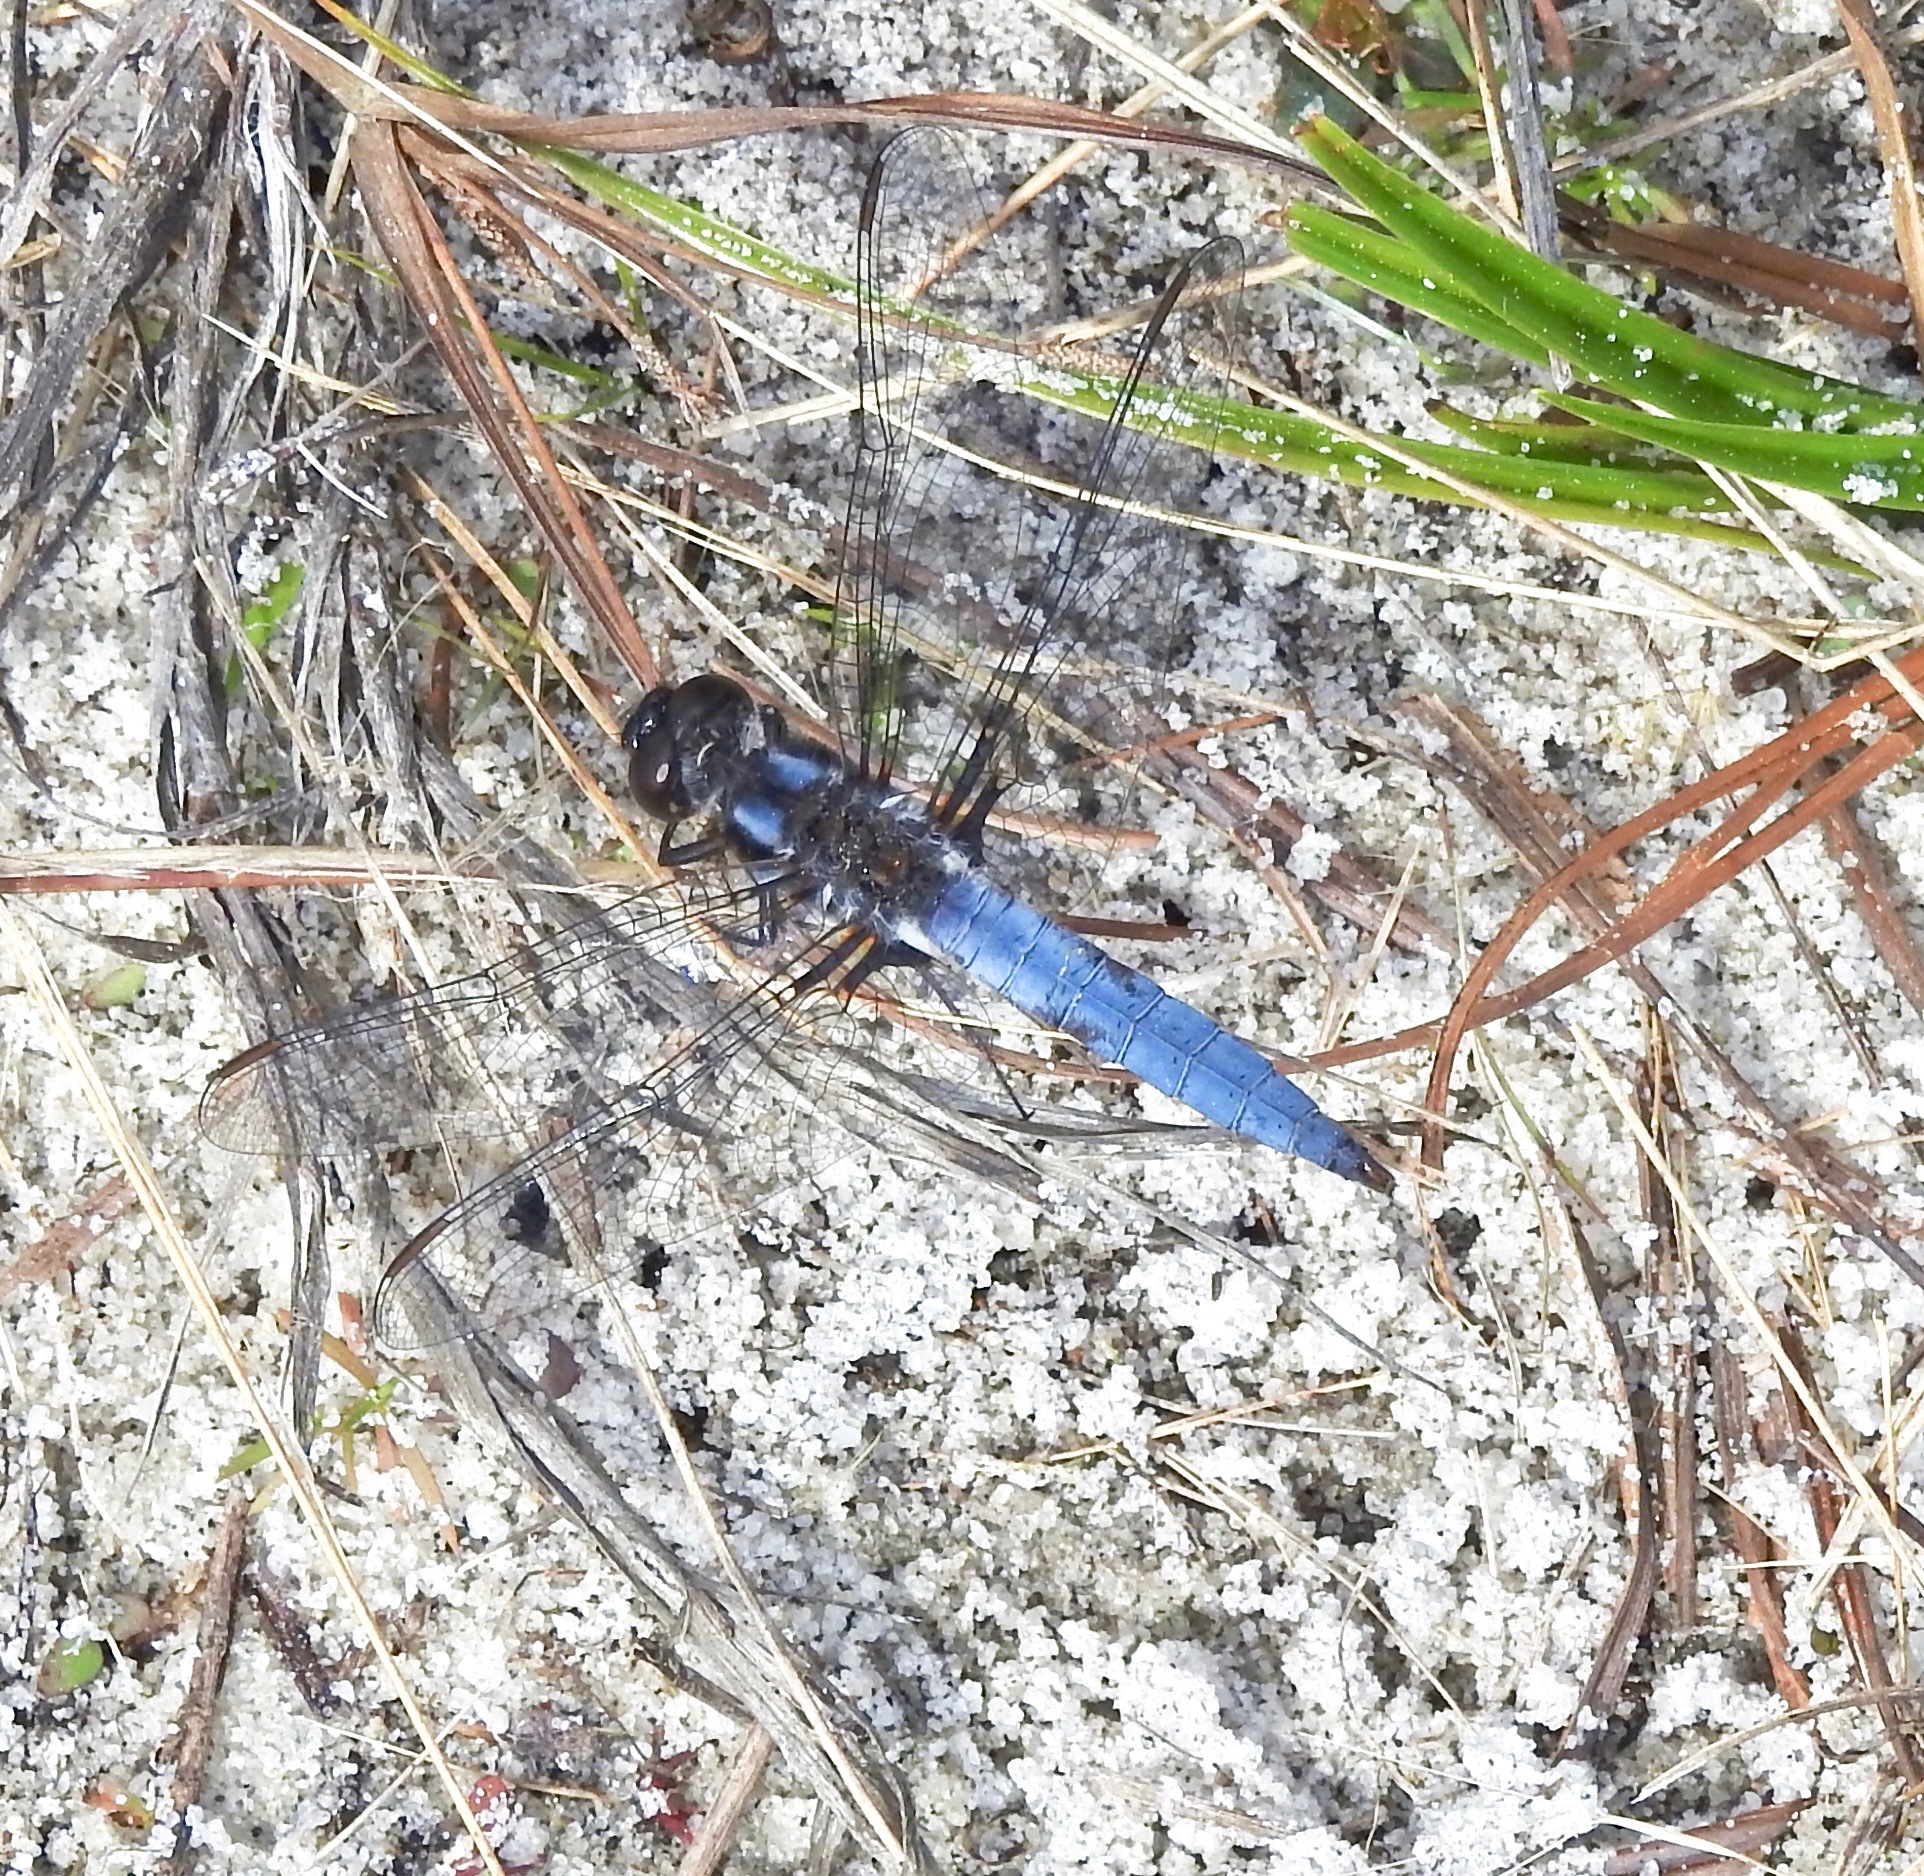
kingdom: Animalia
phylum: Arthropoda
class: Insecta
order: Odonata
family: Libellulidae
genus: Ladona
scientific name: Ladona deplanata
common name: Blue corporal
